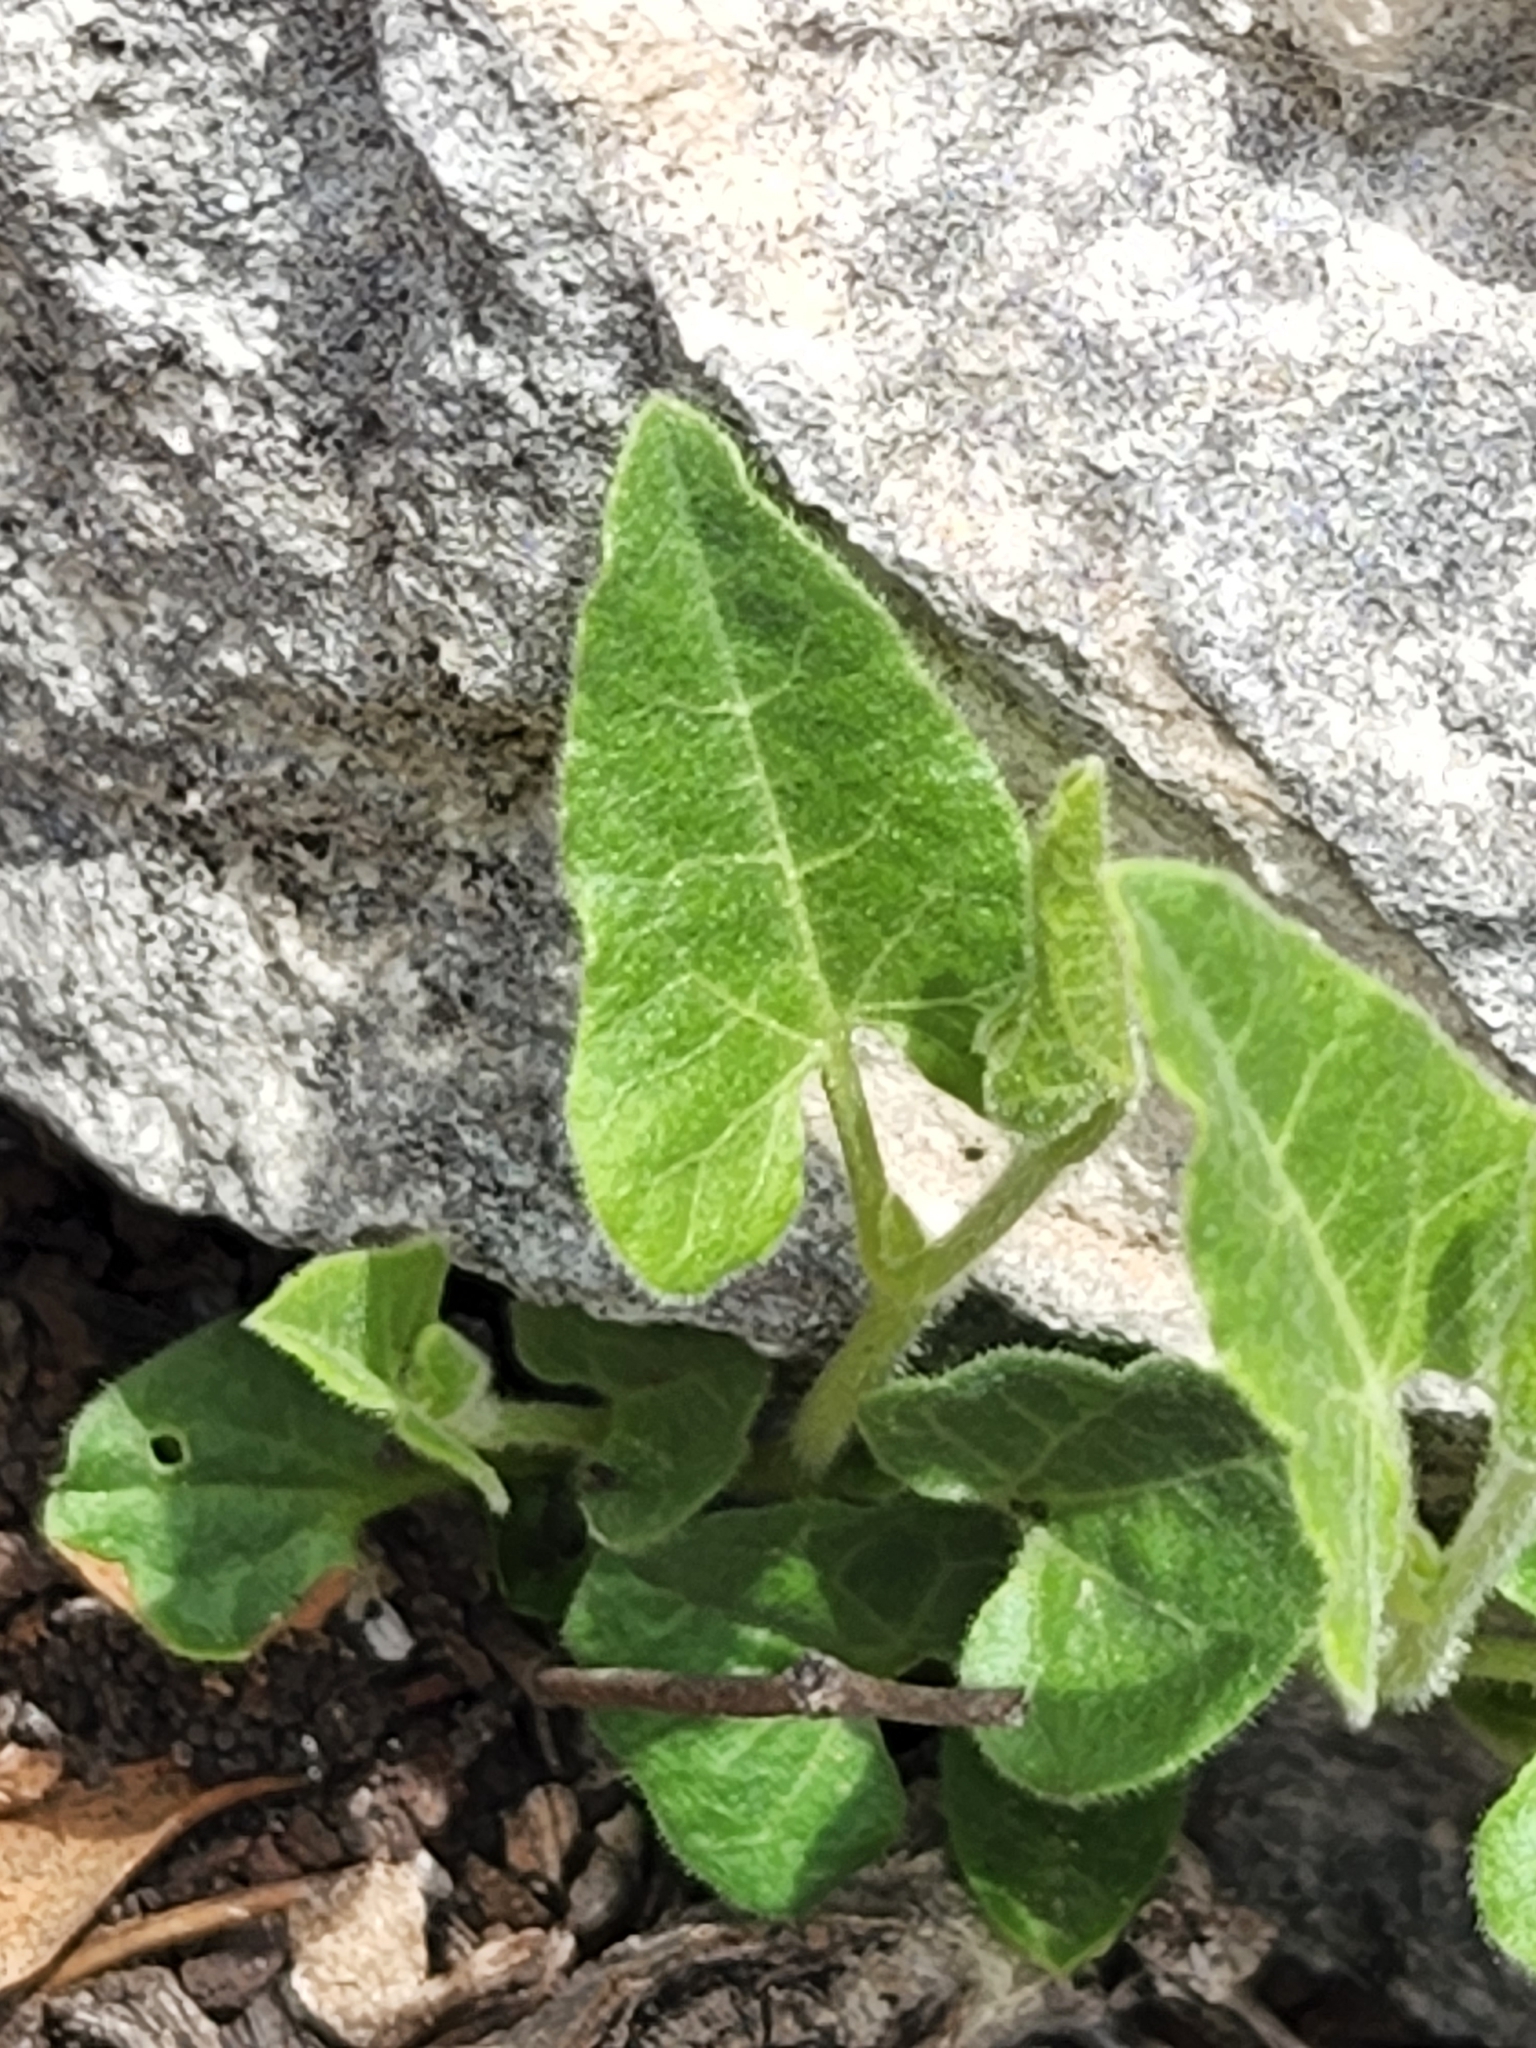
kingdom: Plantae
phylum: Tracheophyta
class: Magnoliopsida
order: Piperales
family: Aristolochiaceae
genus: Aristolochia
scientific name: Aristolochia coryi
